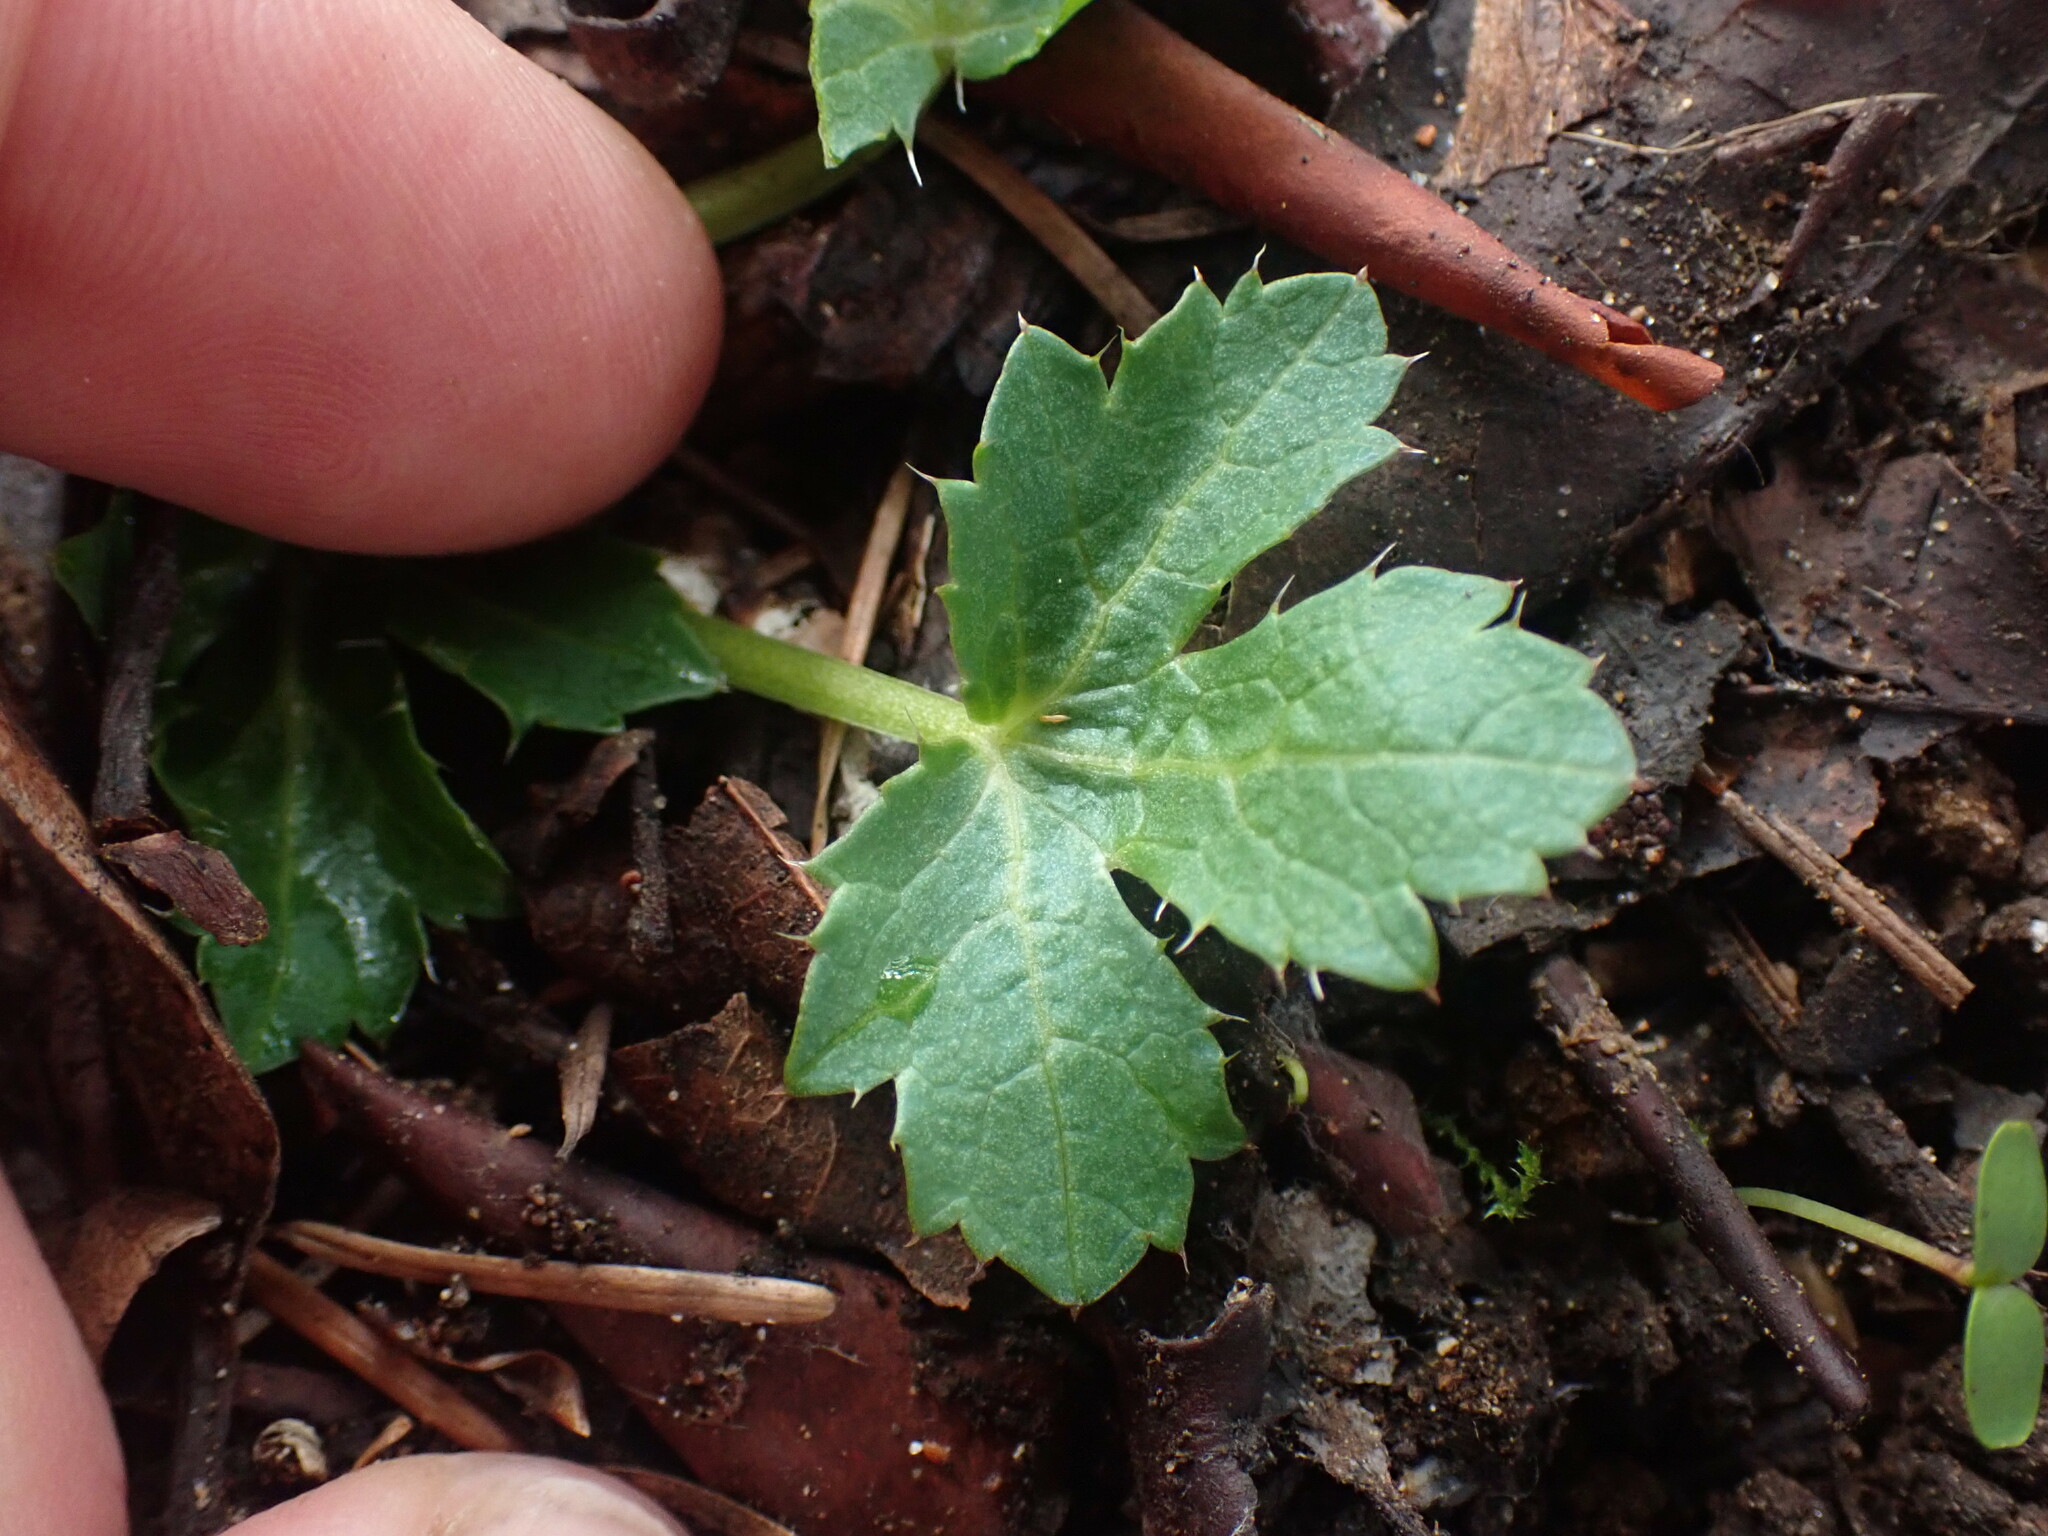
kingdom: Plantae
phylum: Tracheophyta
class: Magnoliopsida
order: Apiales
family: Apiaceae
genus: Sanicula
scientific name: Sanicula crassicaulis
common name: Western snakeroot
